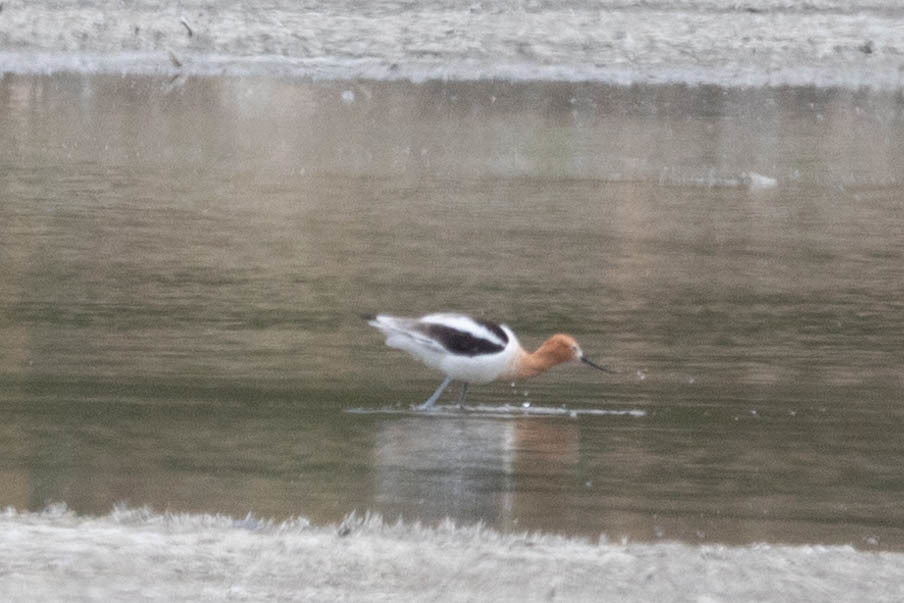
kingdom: Animalia
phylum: Chordata
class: Aves
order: Charadriiformes
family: Recurvirostridae
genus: Recurvirostra
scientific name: Recurvirostra americana
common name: American avocet
